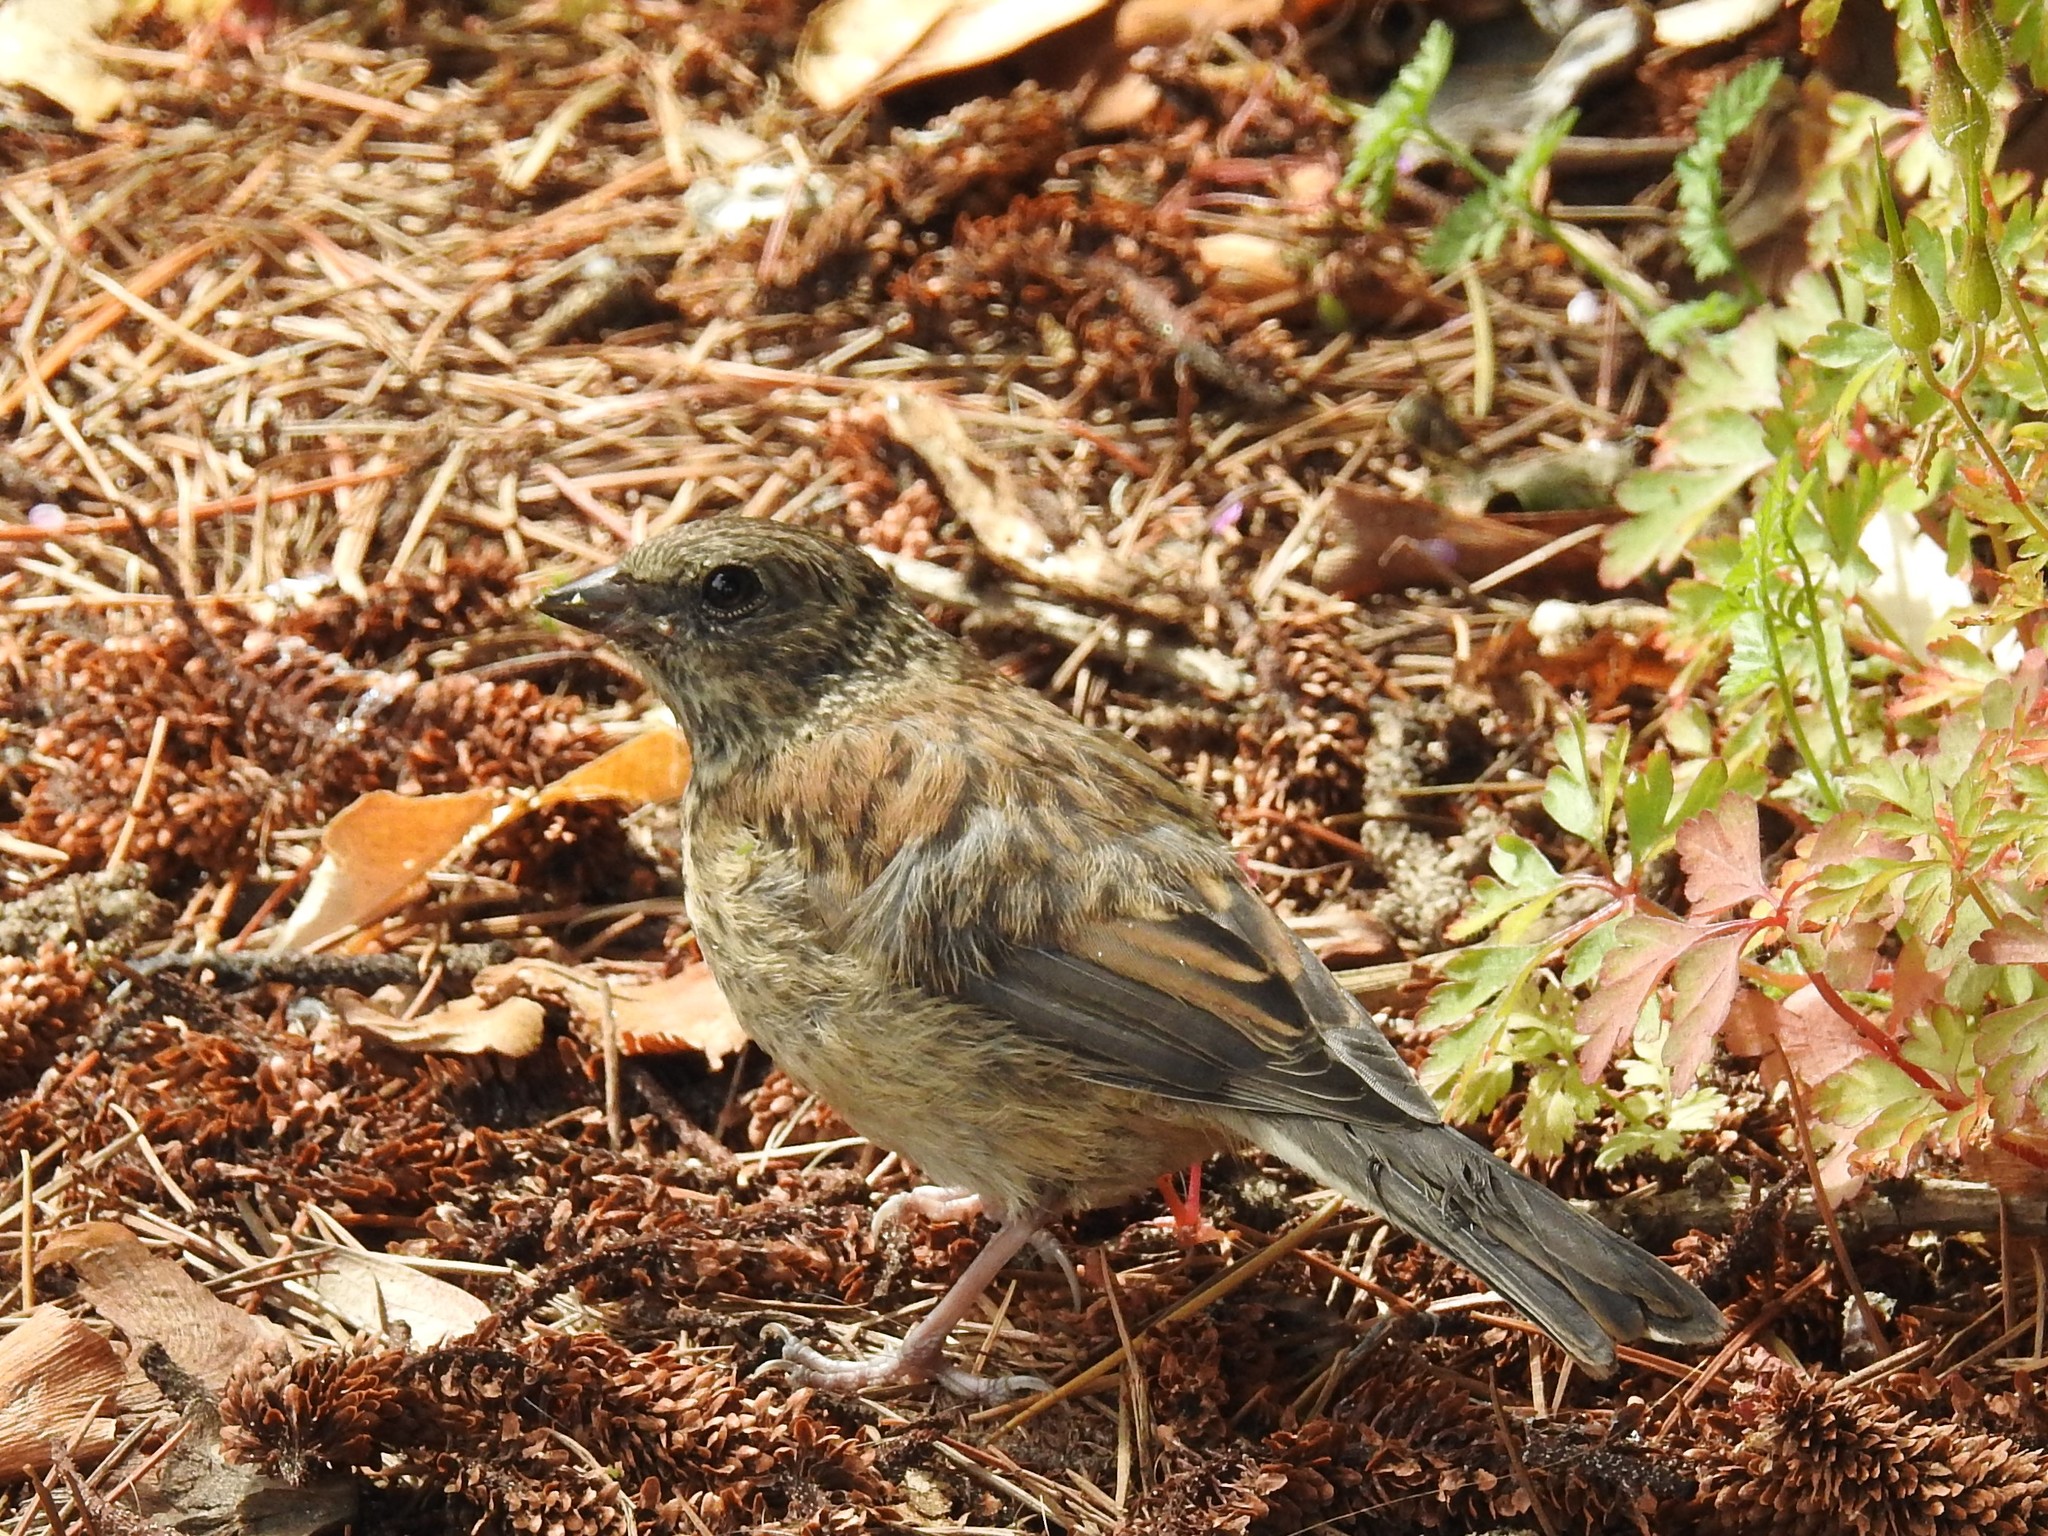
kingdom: Animalia
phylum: Chordata
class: Aves
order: Passeriformes
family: Passerellidae
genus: Junco
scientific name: Junco hyemalis
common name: Dark-eyed junco
